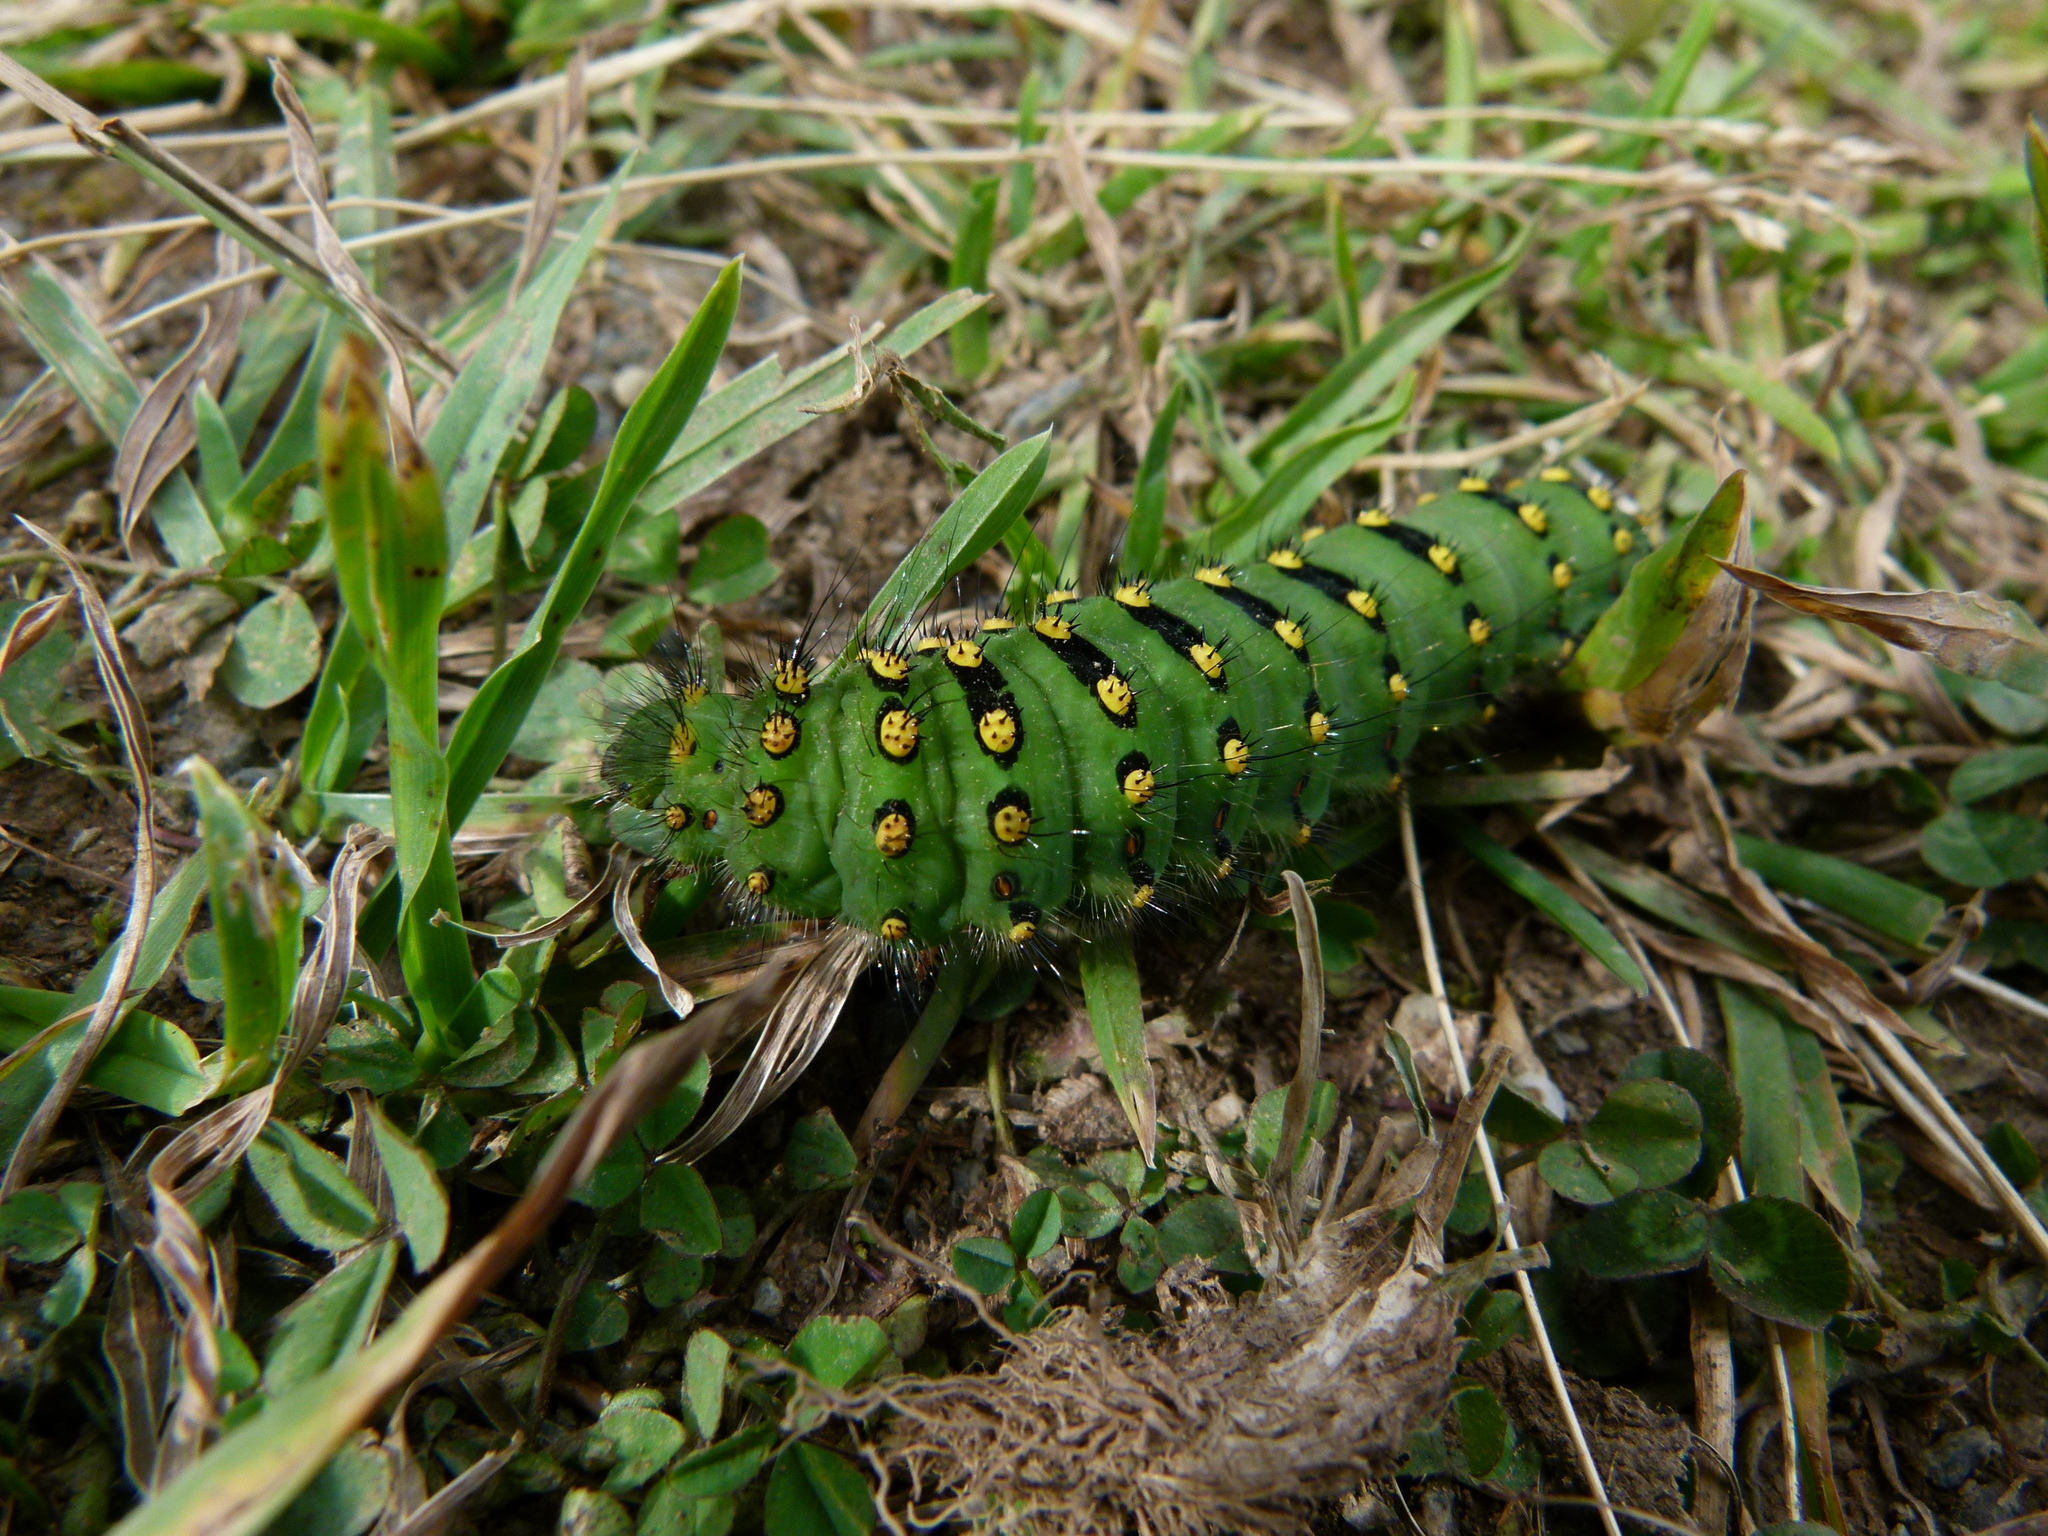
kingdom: Animalia
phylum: Arthropoda
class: Insecta
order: Lepidoptera
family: Saturniidae
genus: Saturnia
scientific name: Saturnia pavonia
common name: Emperor moth
